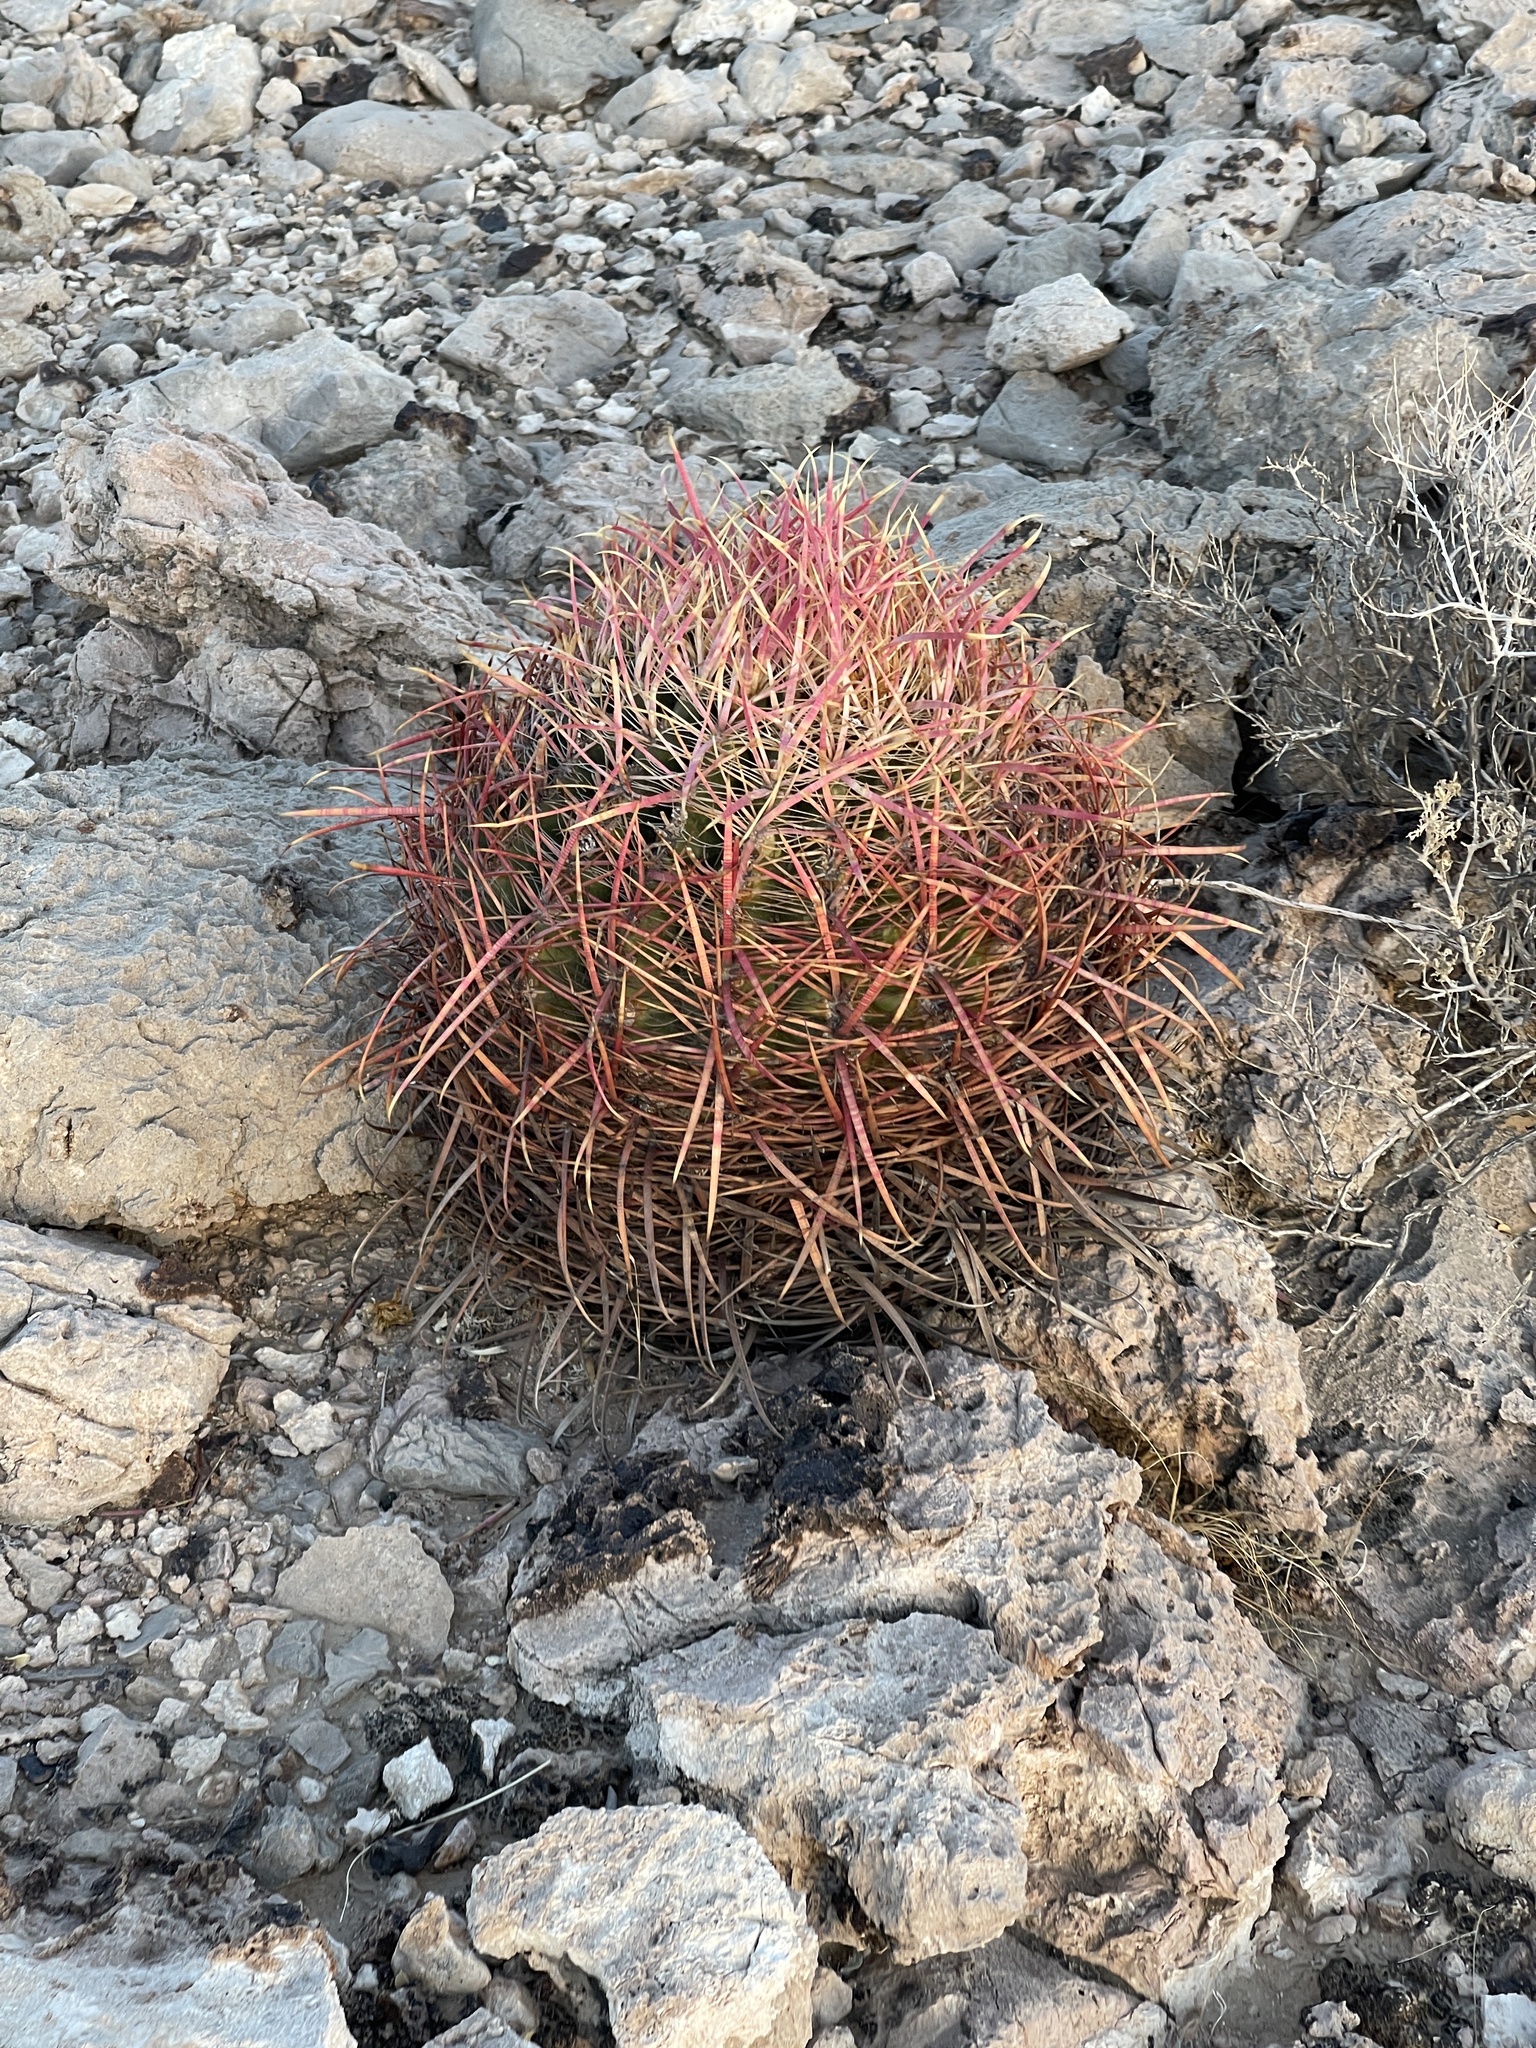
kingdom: Plantae
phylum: Tracheophyta
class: Magnoliopsida
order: Caryophyllales
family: Cactaceae
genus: Ferocactus
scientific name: Ferocactus cylindraceus
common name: California barrel cactus
